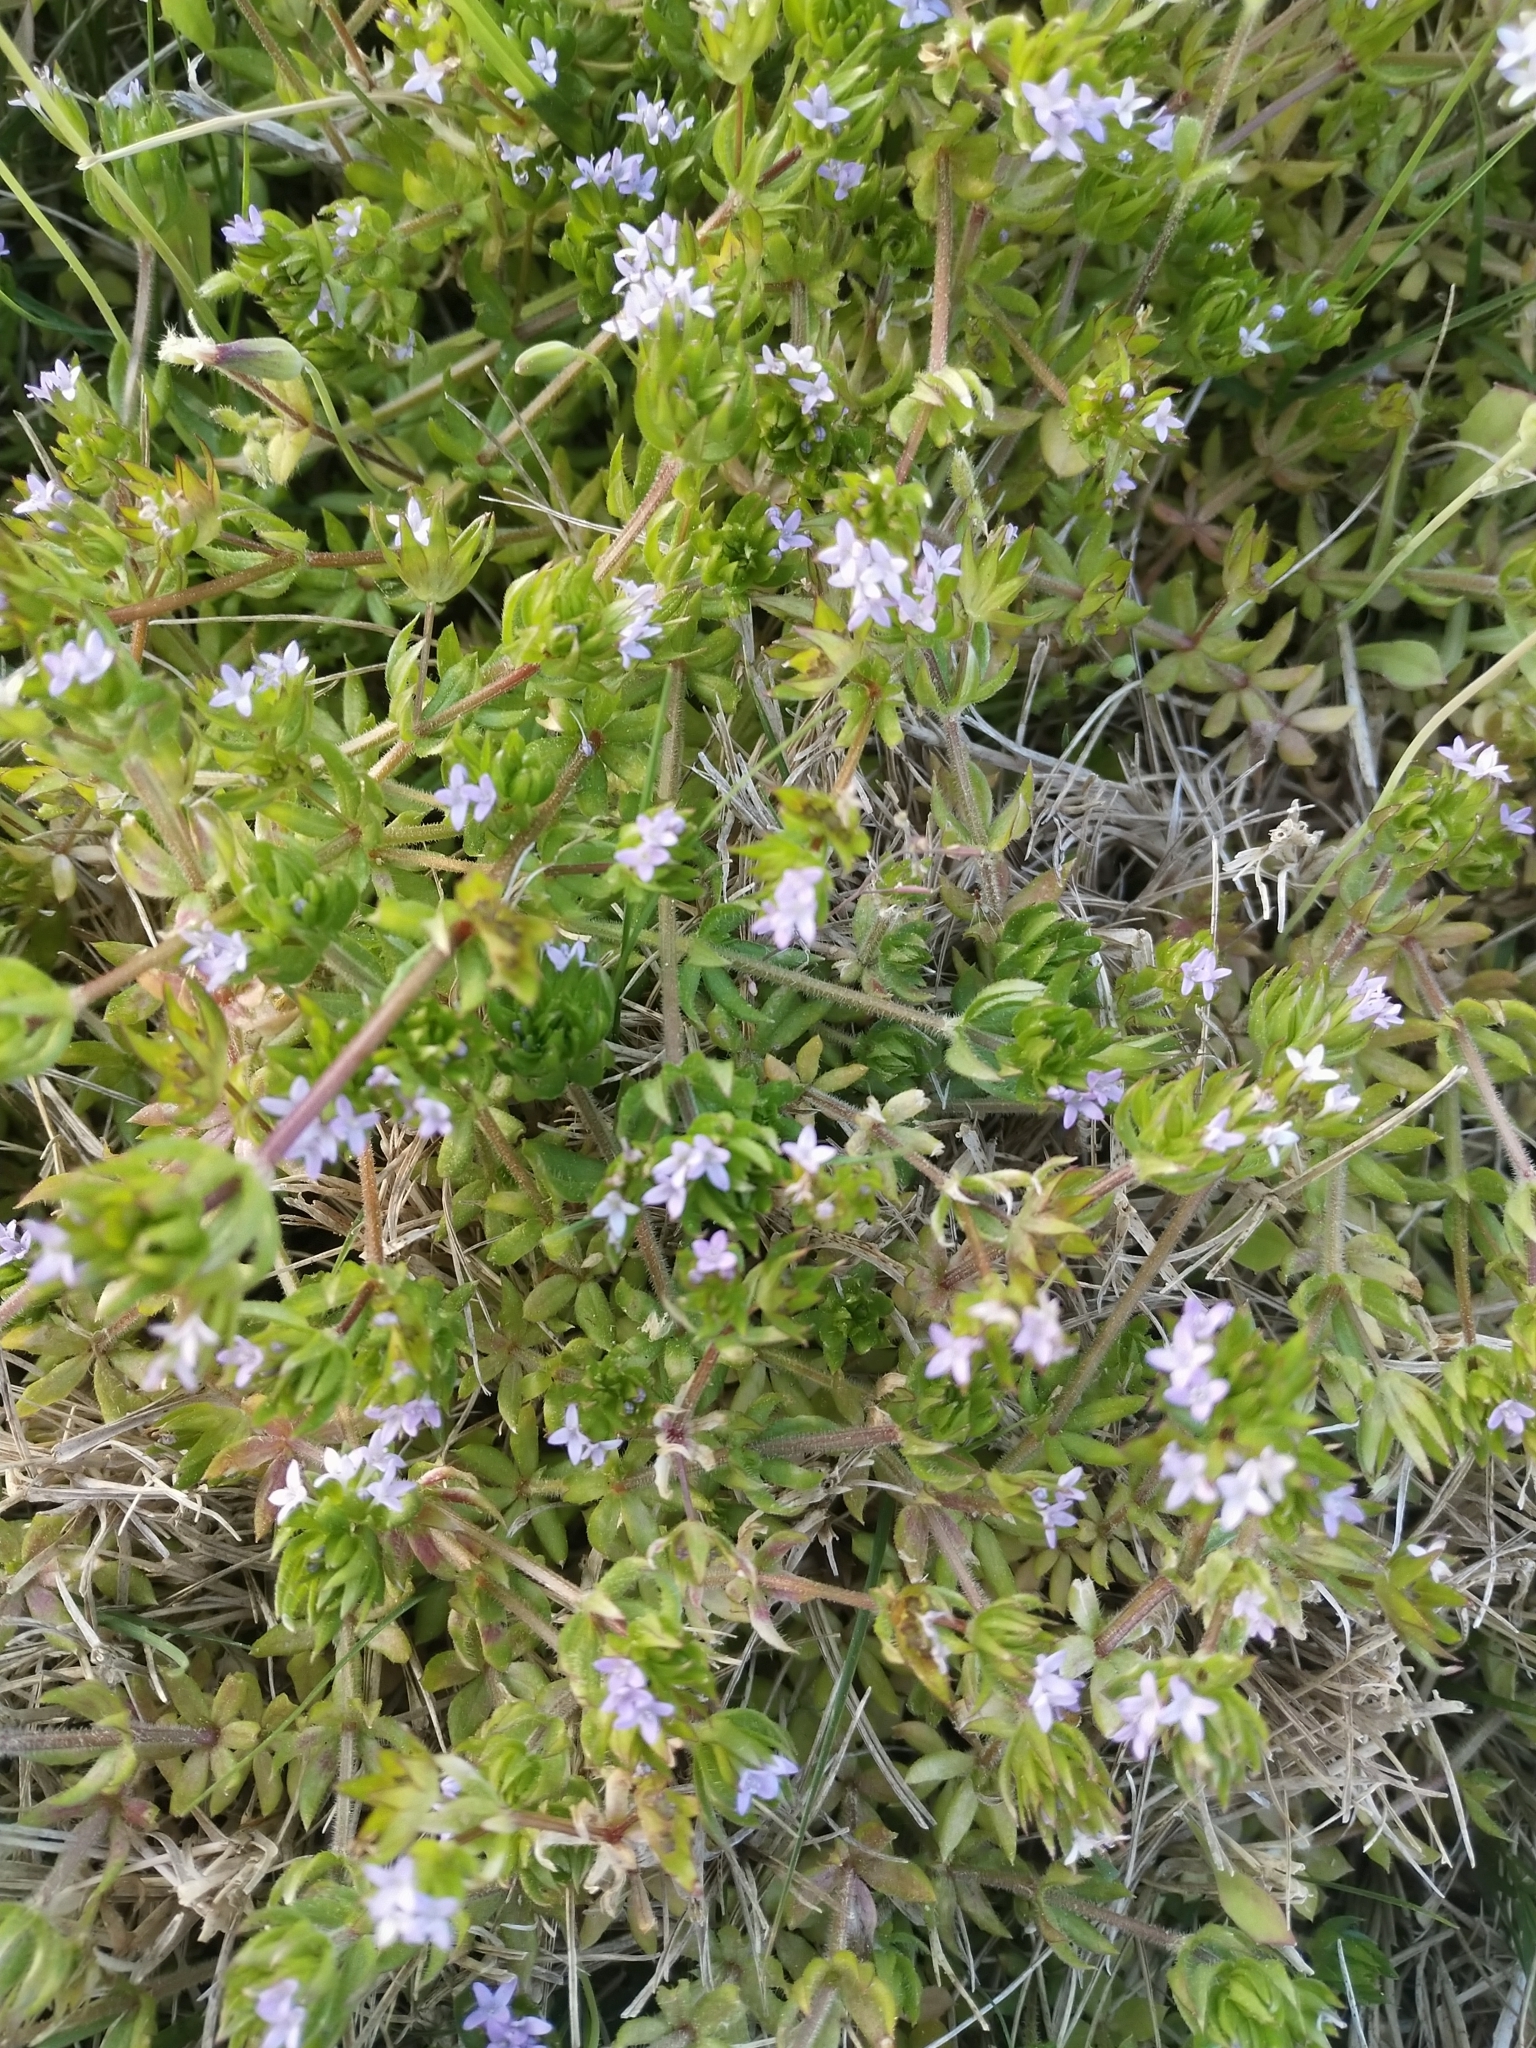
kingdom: Plantae
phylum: Tracheophyta
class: Magnoliopsida
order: Gentianales
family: Rubiaceae
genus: Sherardia
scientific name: Sherardia arvensis
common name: Field madder
